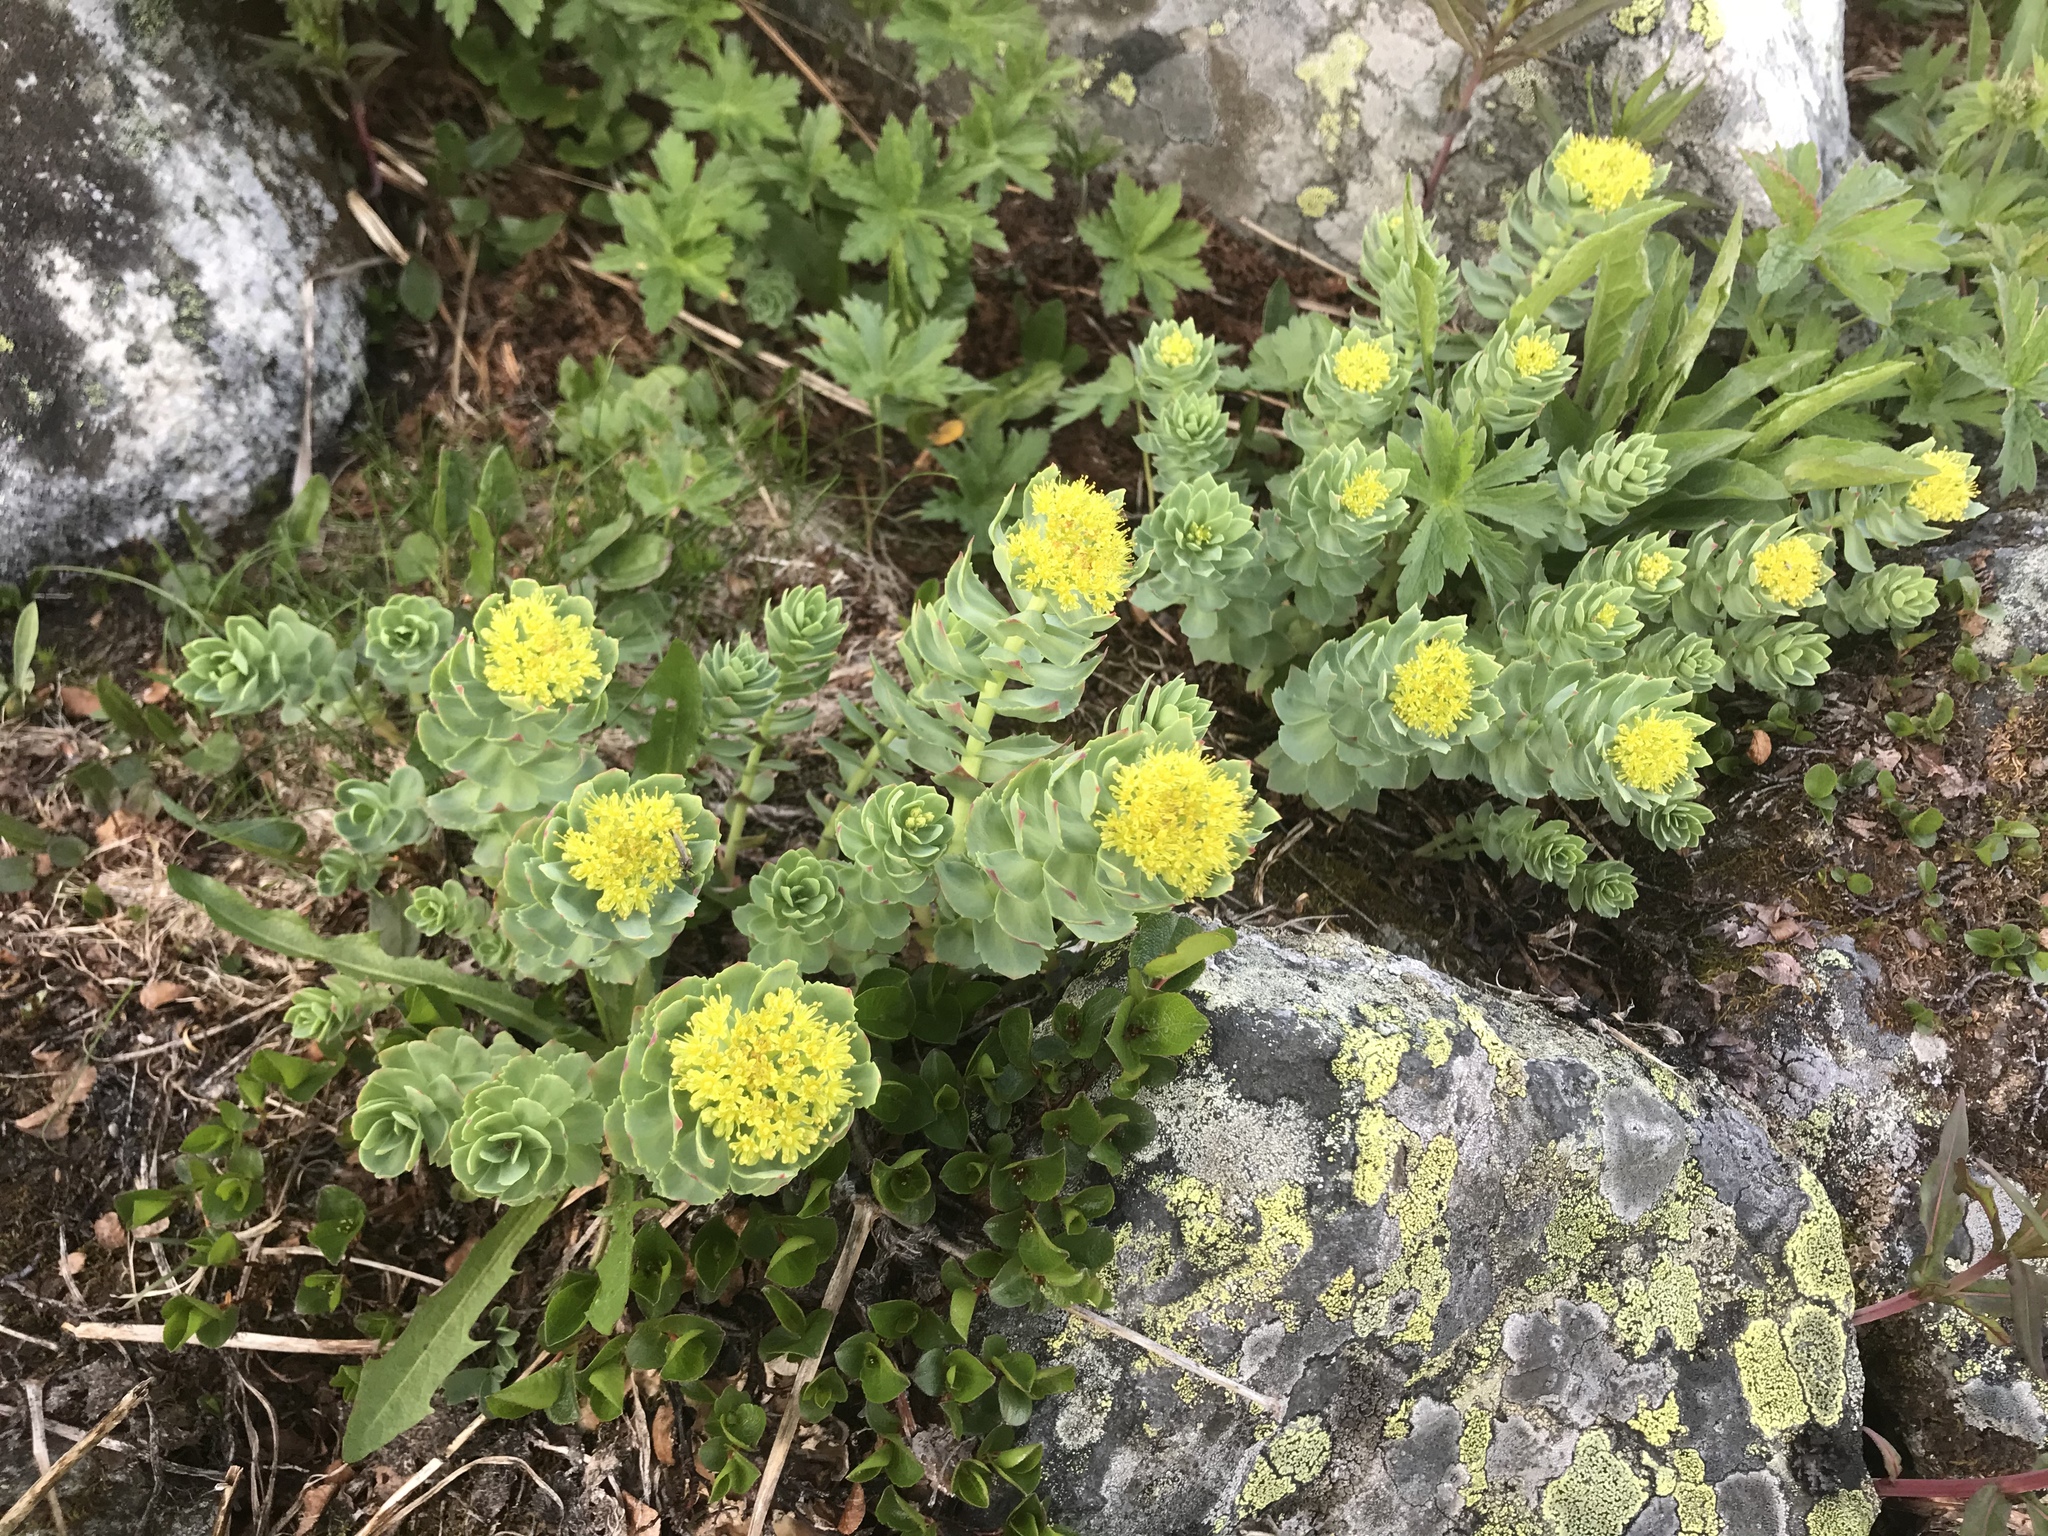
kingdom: Plantae
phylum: Tracheophyta
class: Magnoliopsida
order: Saxifragales
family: Crassulaceae
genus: Rhodiola
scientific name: Rhodiola rosea
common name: Roseroot
